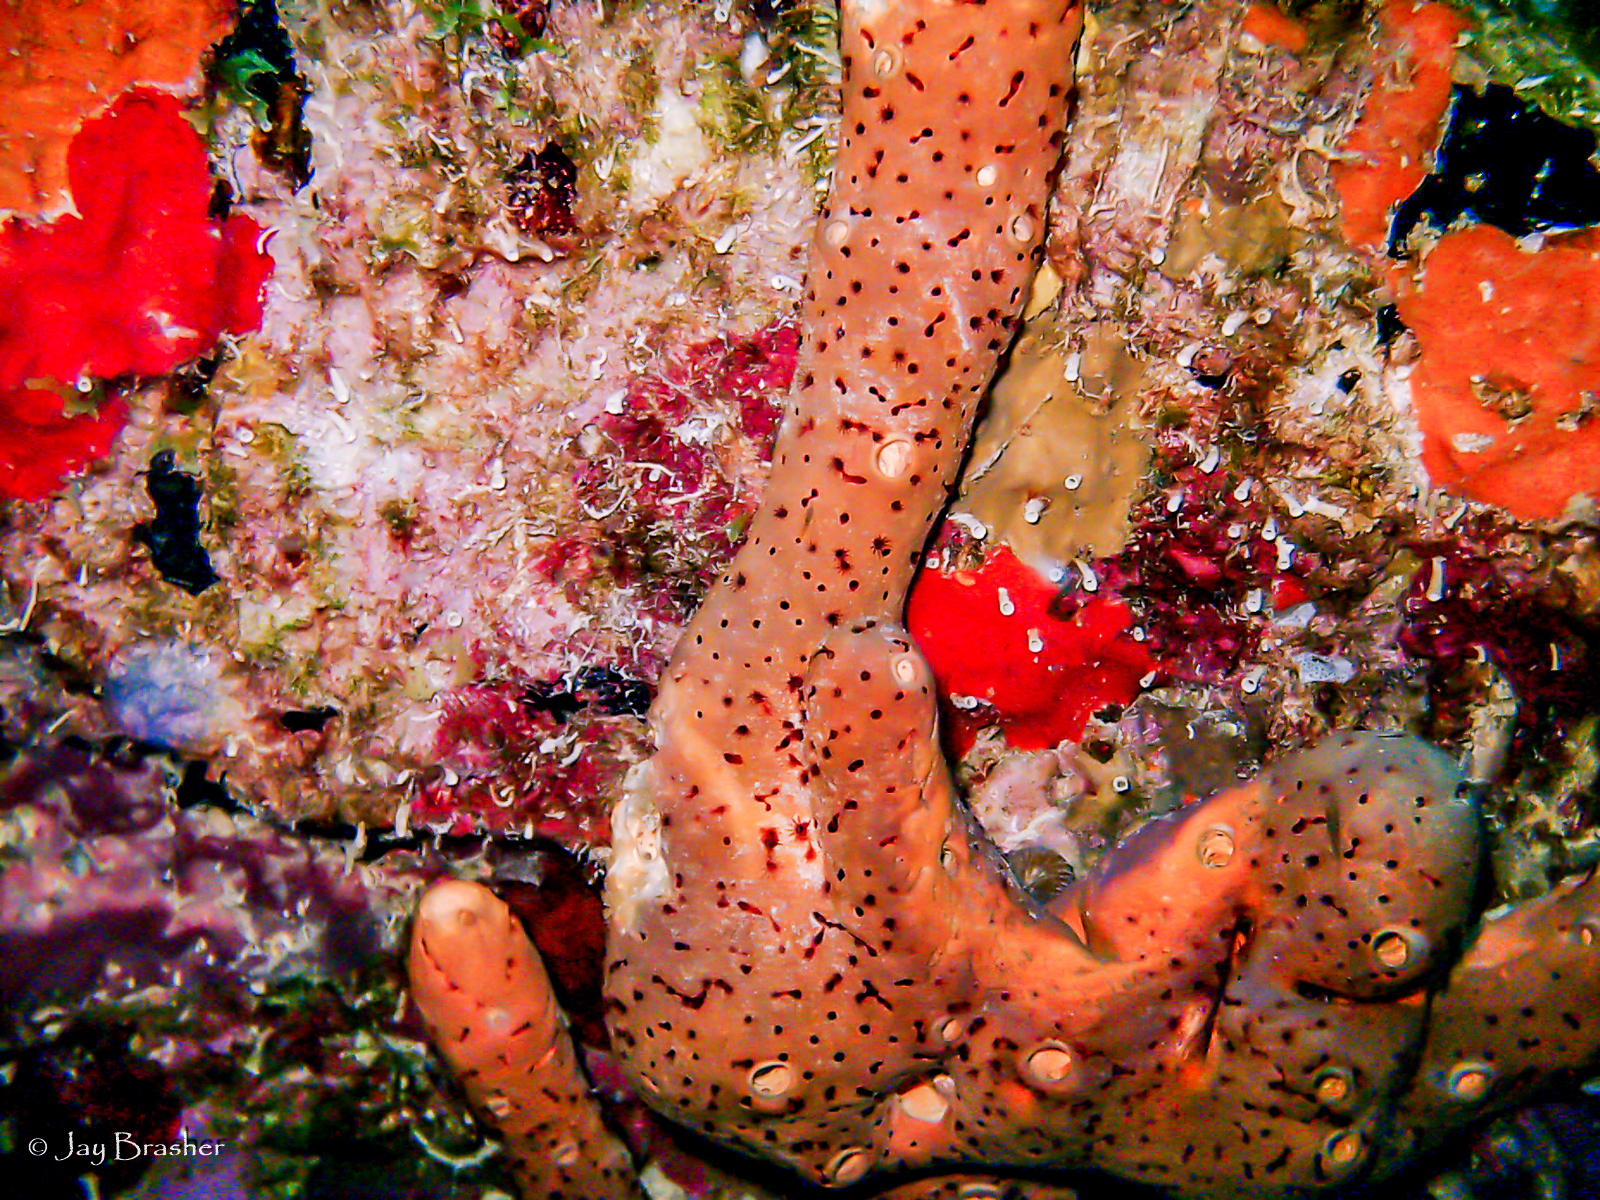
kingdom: Animalia
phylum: Cnidaria
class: Anthozoa
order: Zoantharia
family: Parazoanthidae
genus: Bergia
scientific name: Bergia puertoricense
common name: Maroon sponge zoanthid
